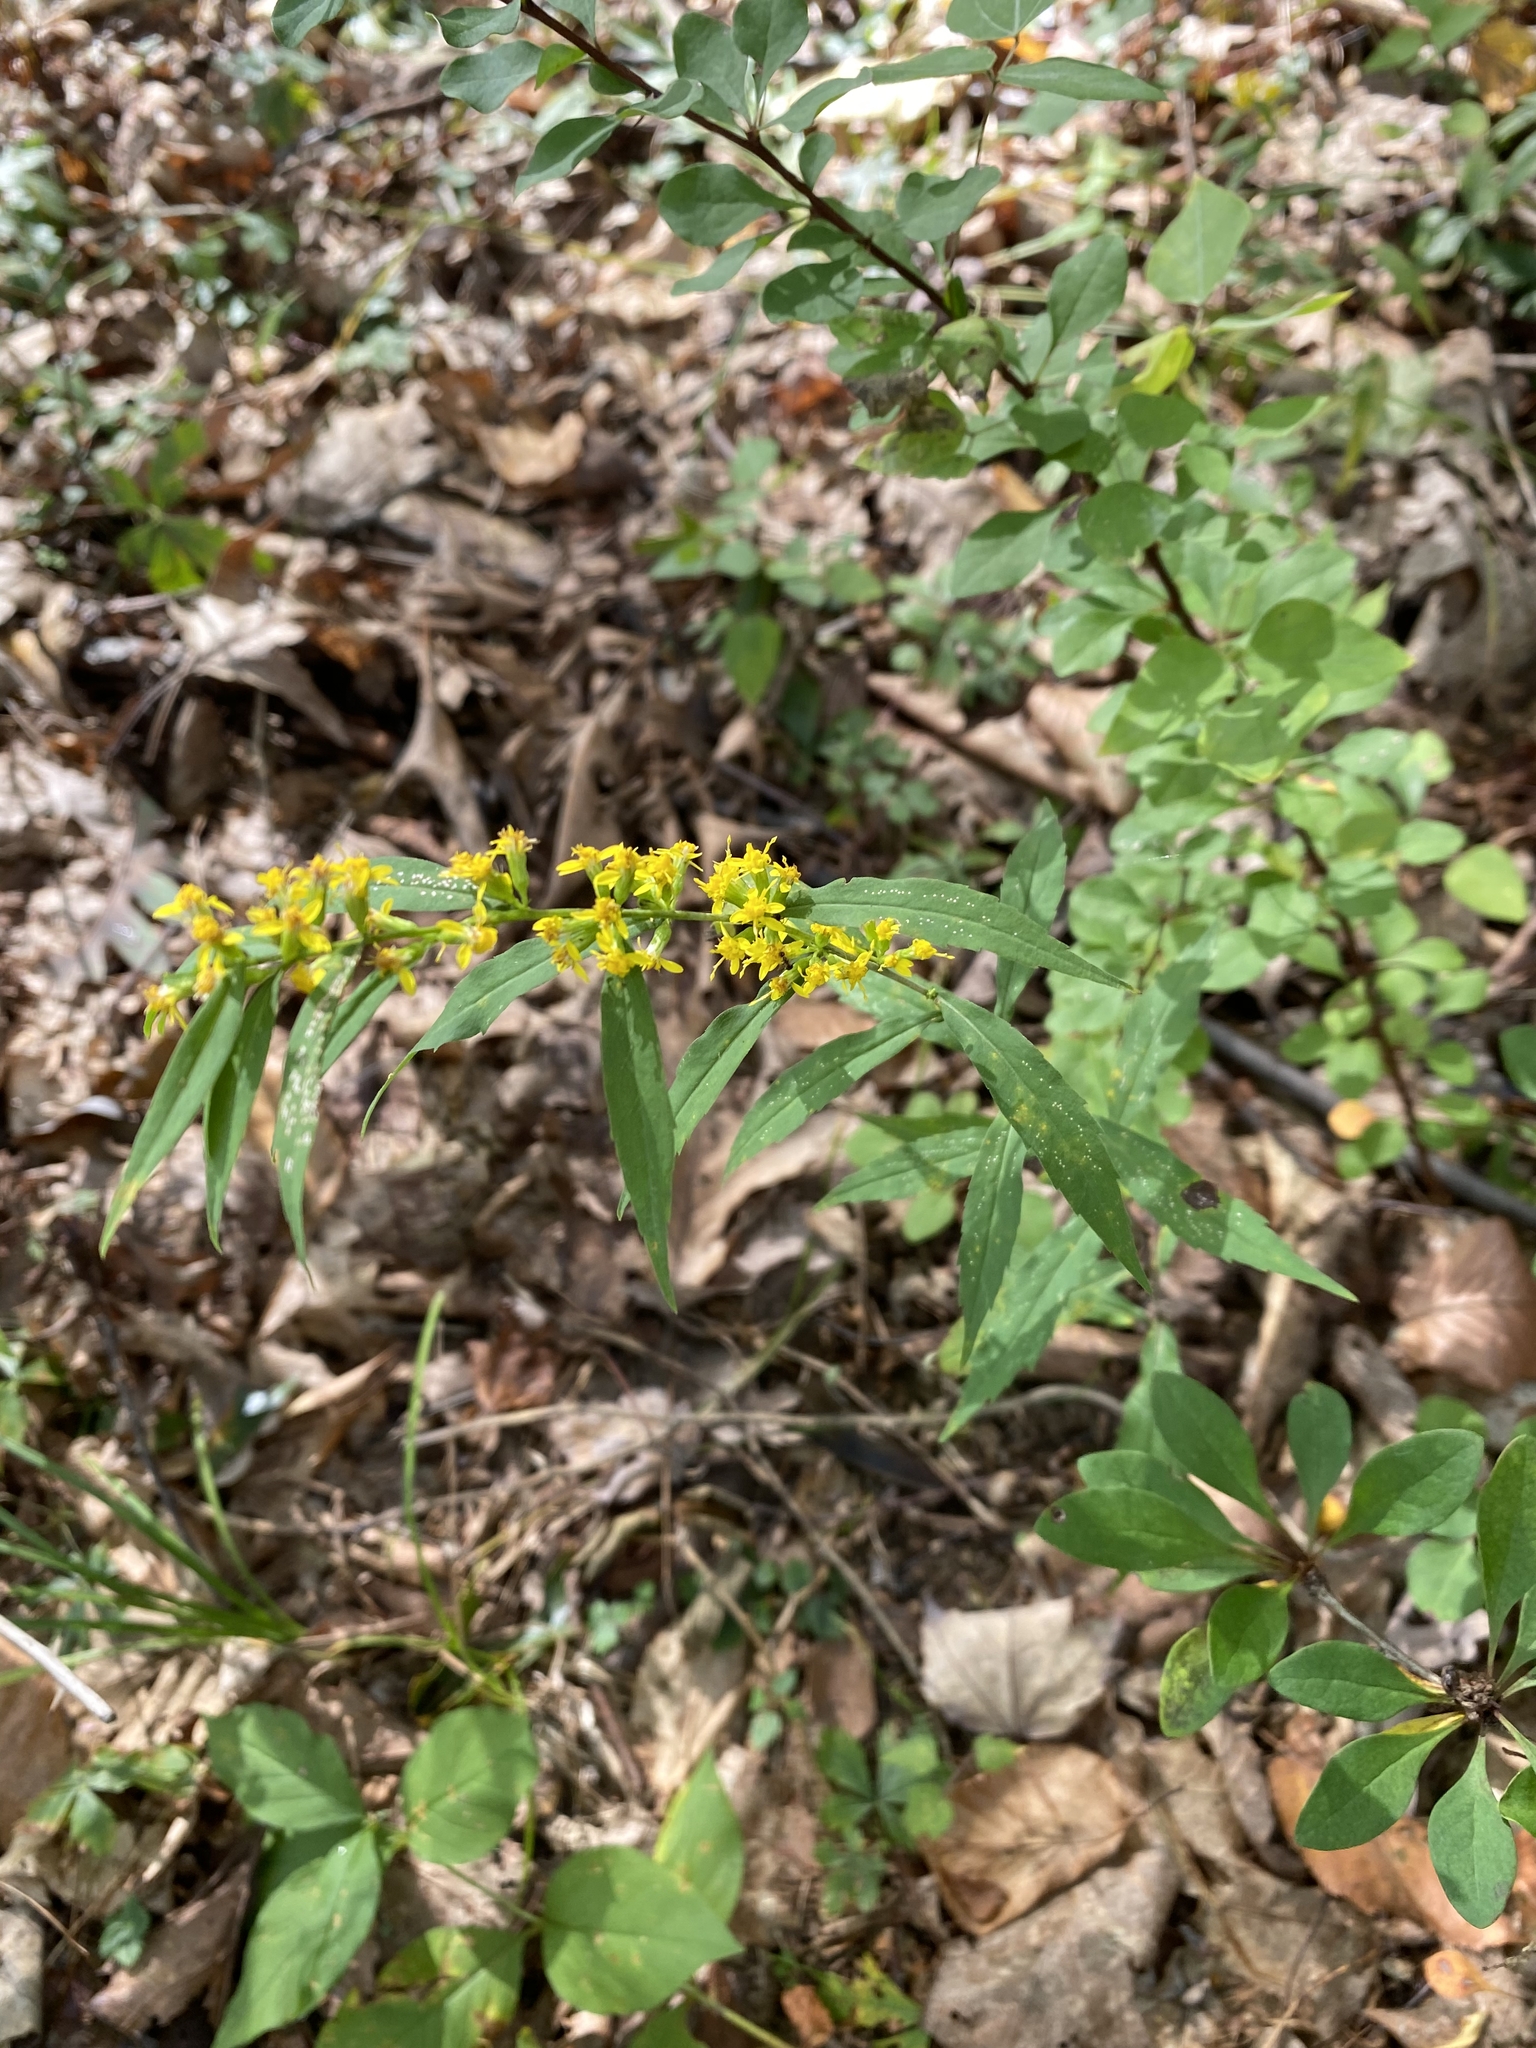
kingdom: Plantae
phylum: Tracheophyta
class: Magnoliopsida
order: Asterales
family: Asteraceae
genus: Solidago
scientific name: Solidago caesia
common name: Woodland goldenrod
